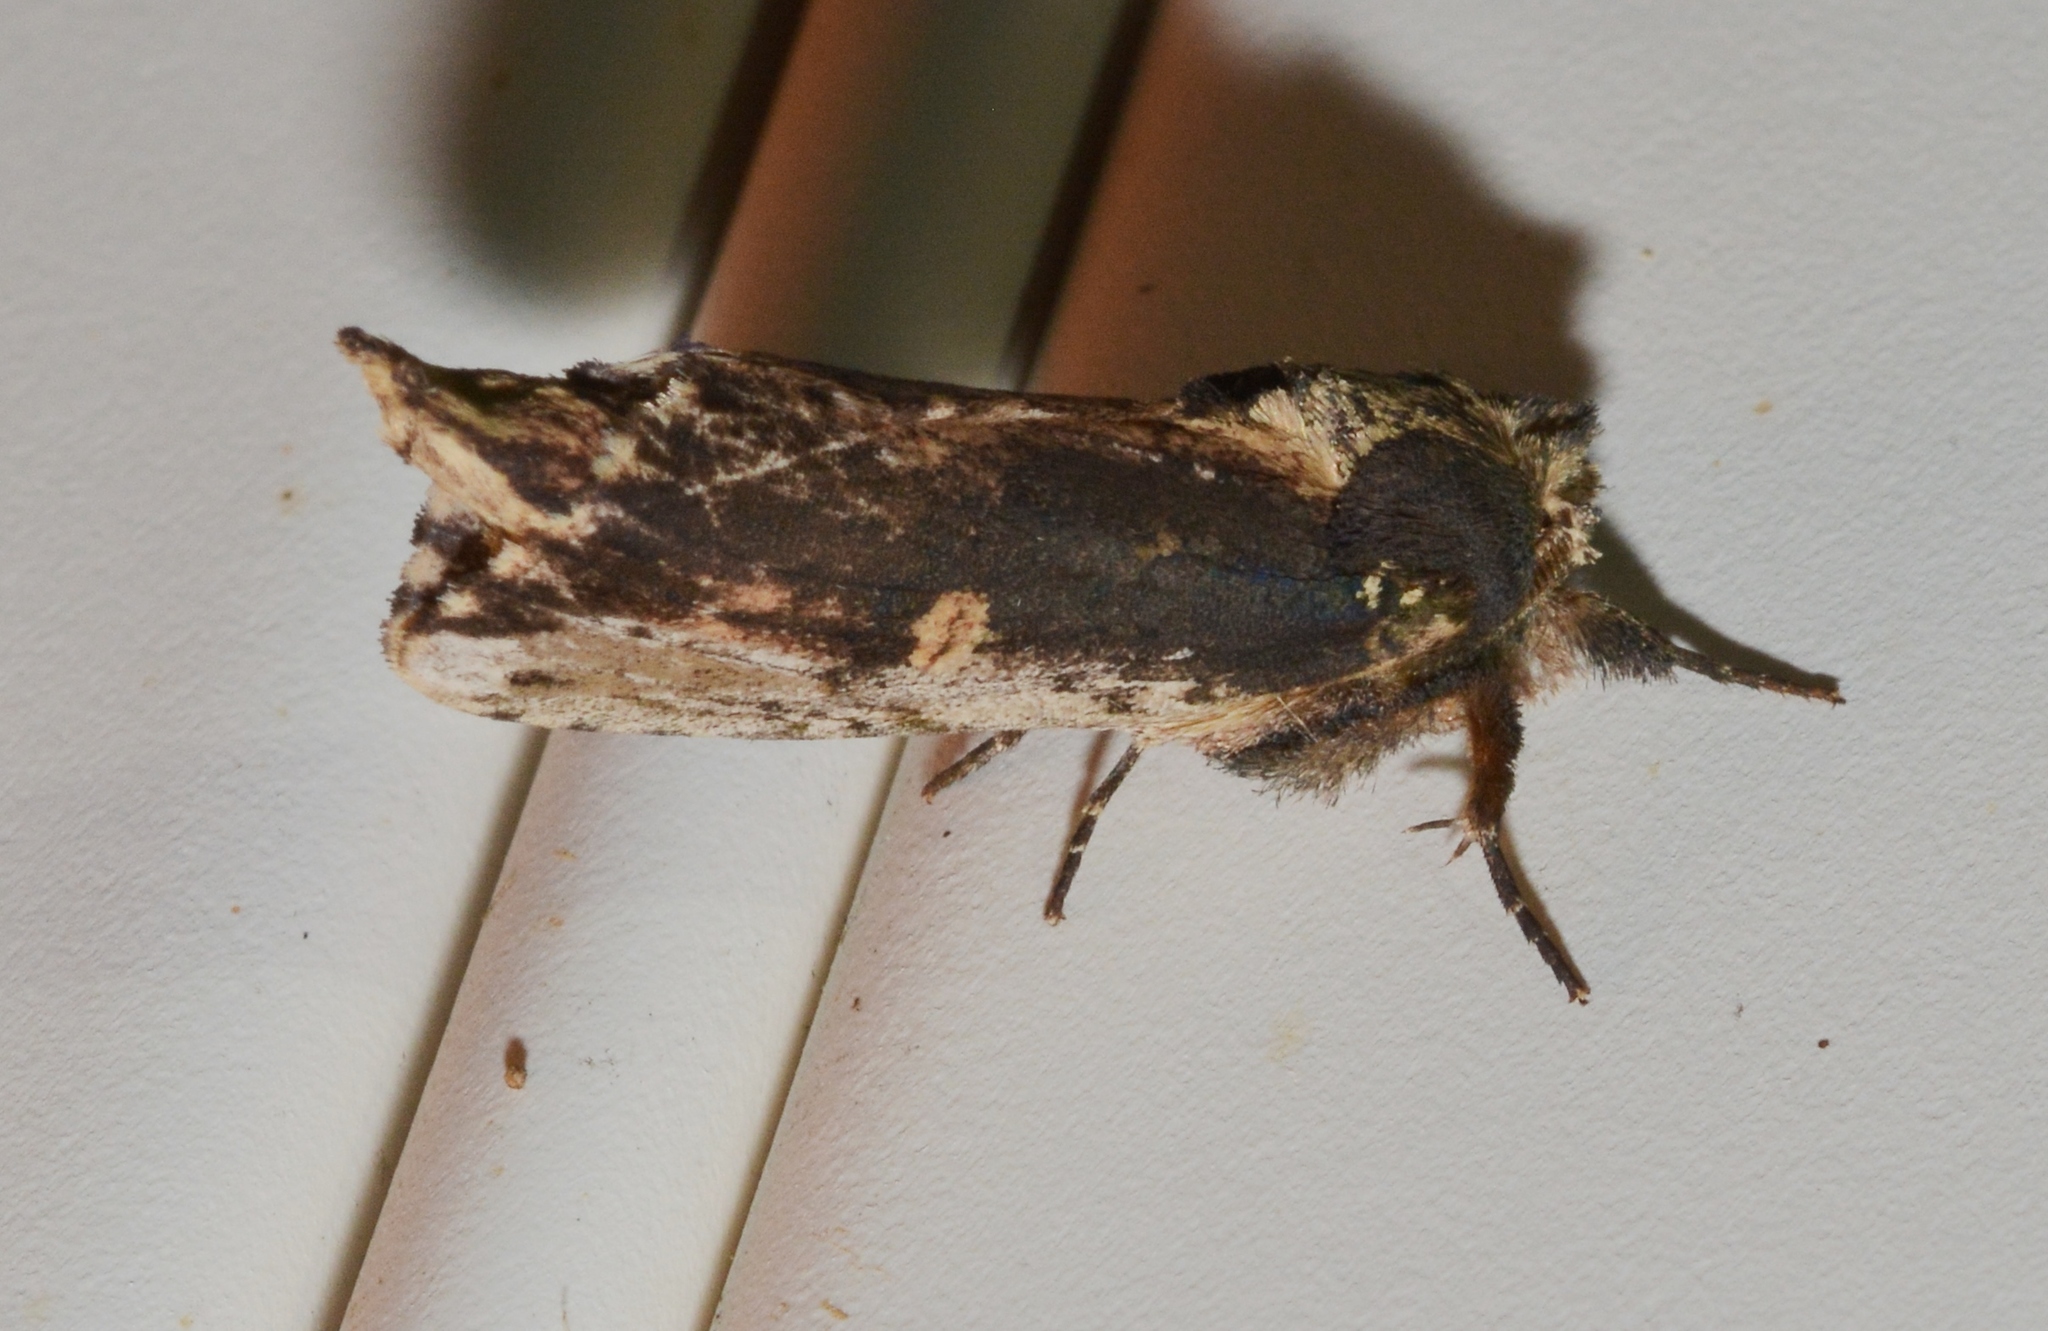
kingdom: Animalia
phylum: Arthropoda
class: Insecta
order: Lepidoptera
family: Notodontidae
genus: Schizura
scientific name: Schizura ipomaeae
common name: Morning-glory prominent
